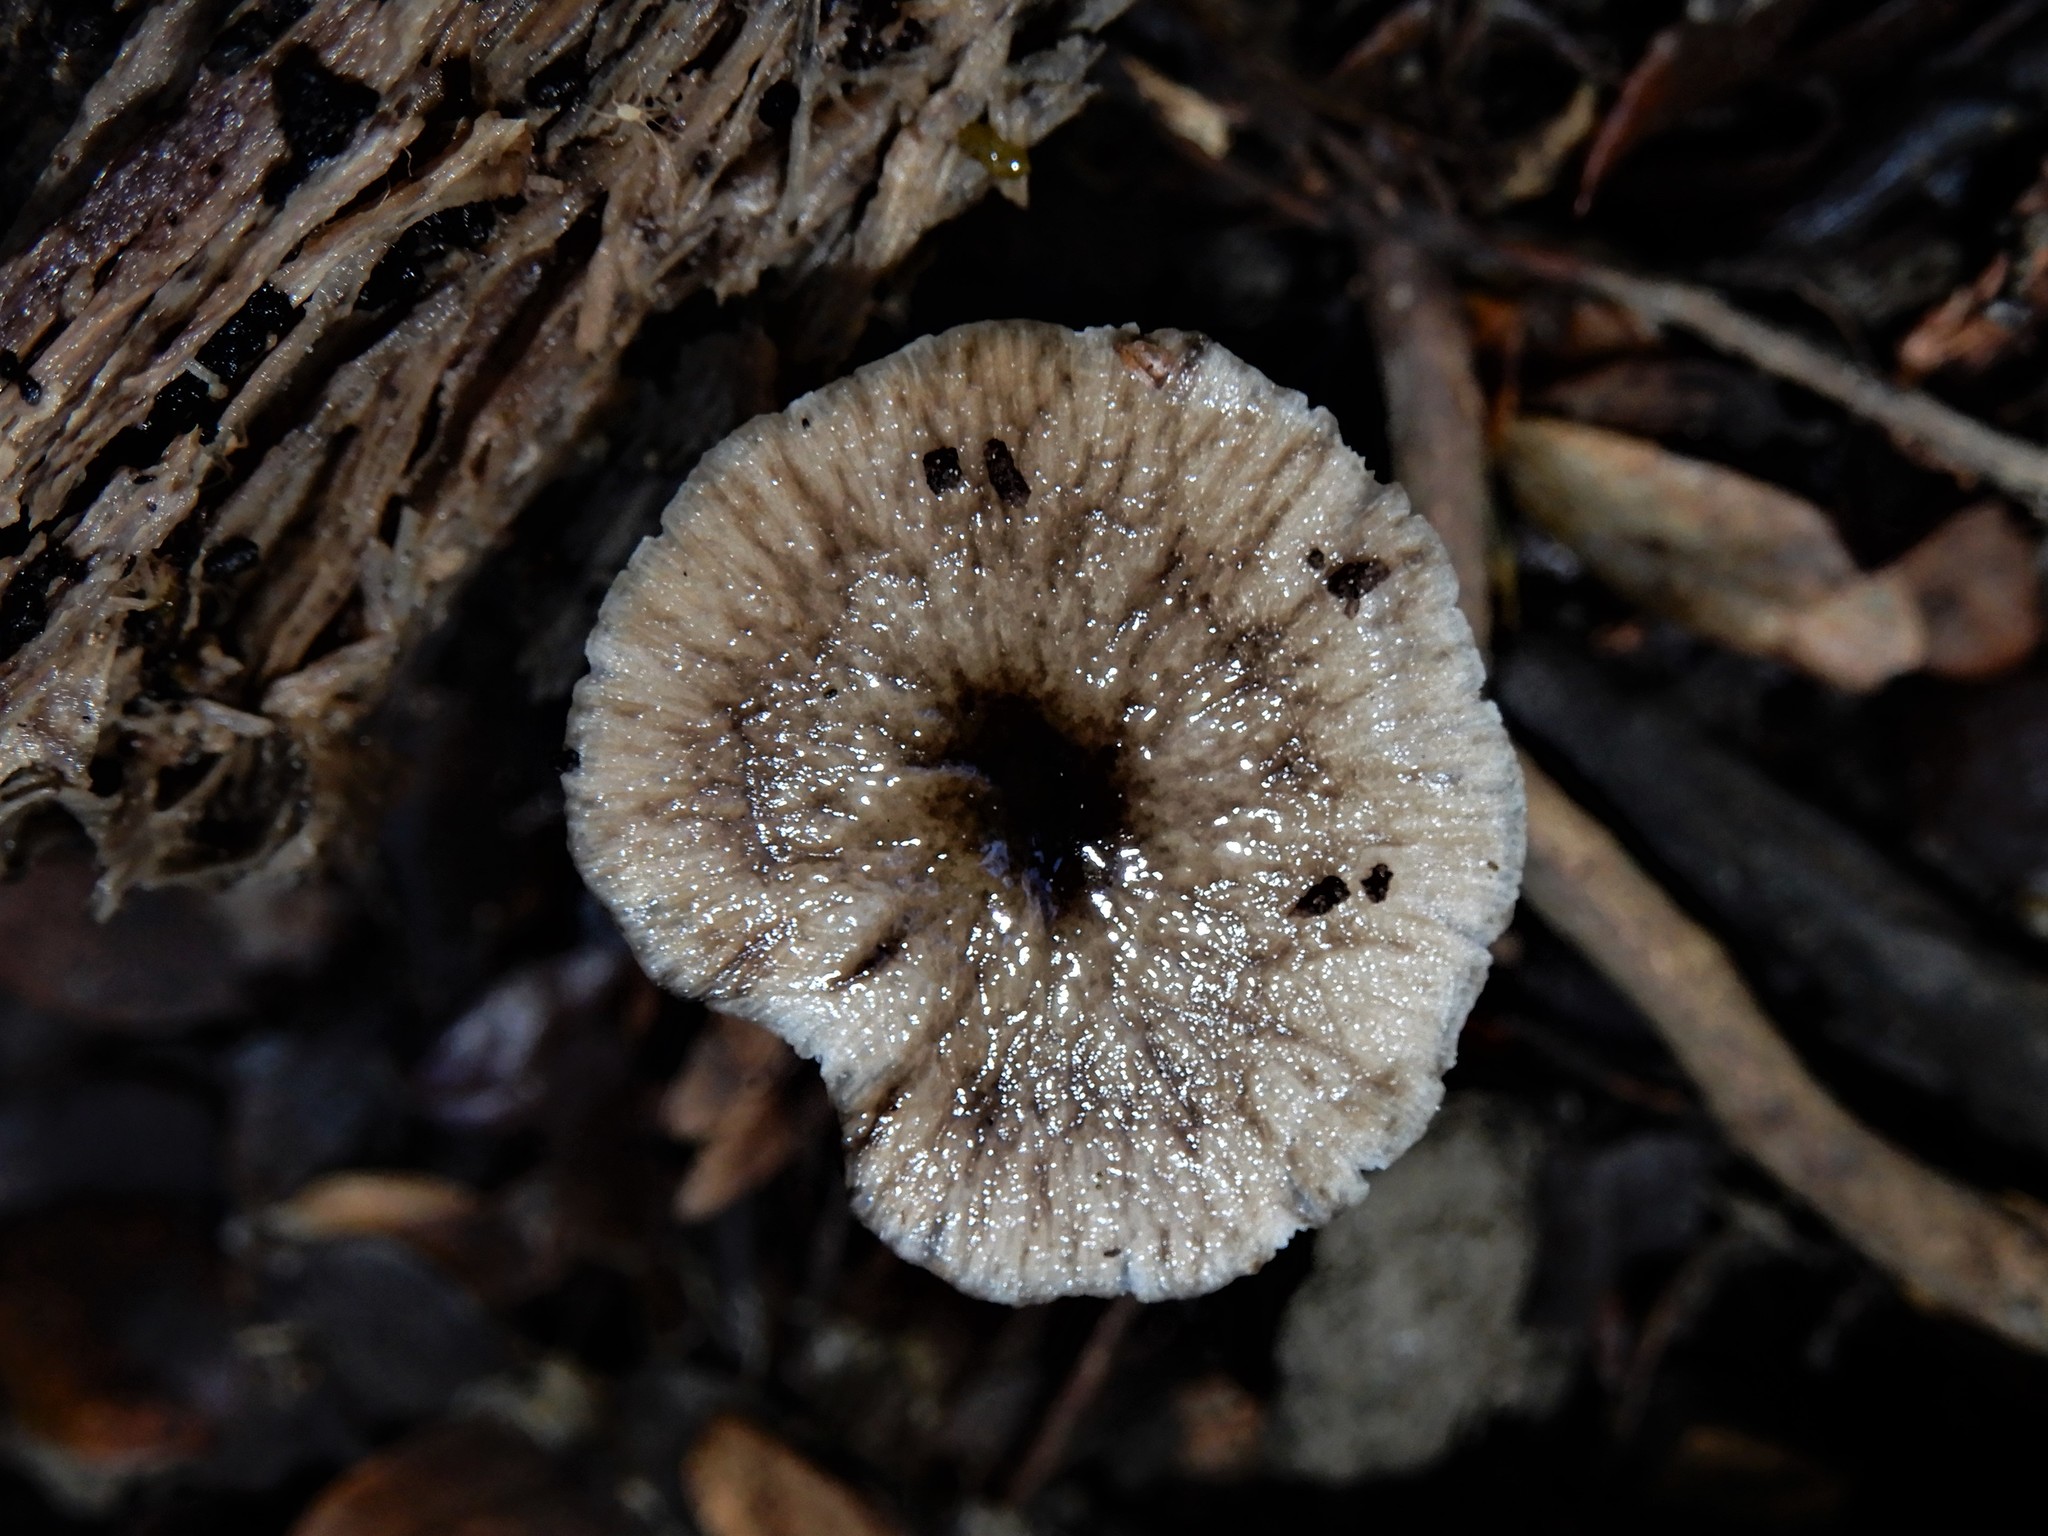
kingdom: Fungi
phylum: Basidiomycota
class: Agaricomycetes
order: Agaricales
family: Bolbitiaceae
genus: Bolbitius
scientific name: Bolbitius muscicola
